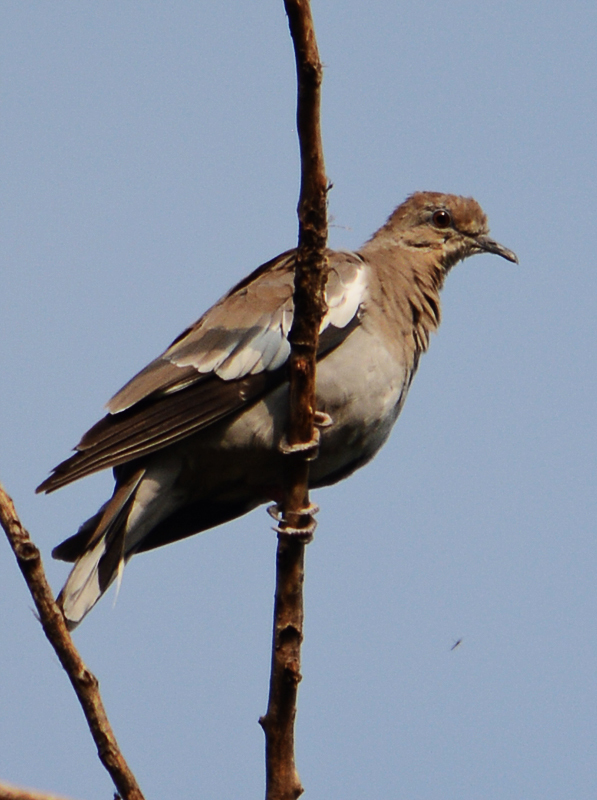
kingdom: Animalia
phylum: Chordata
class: Aves
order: Columbiformes
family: Columbidae
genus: Zenaida
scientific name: Zenaida asiatica
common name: White-winged dove
